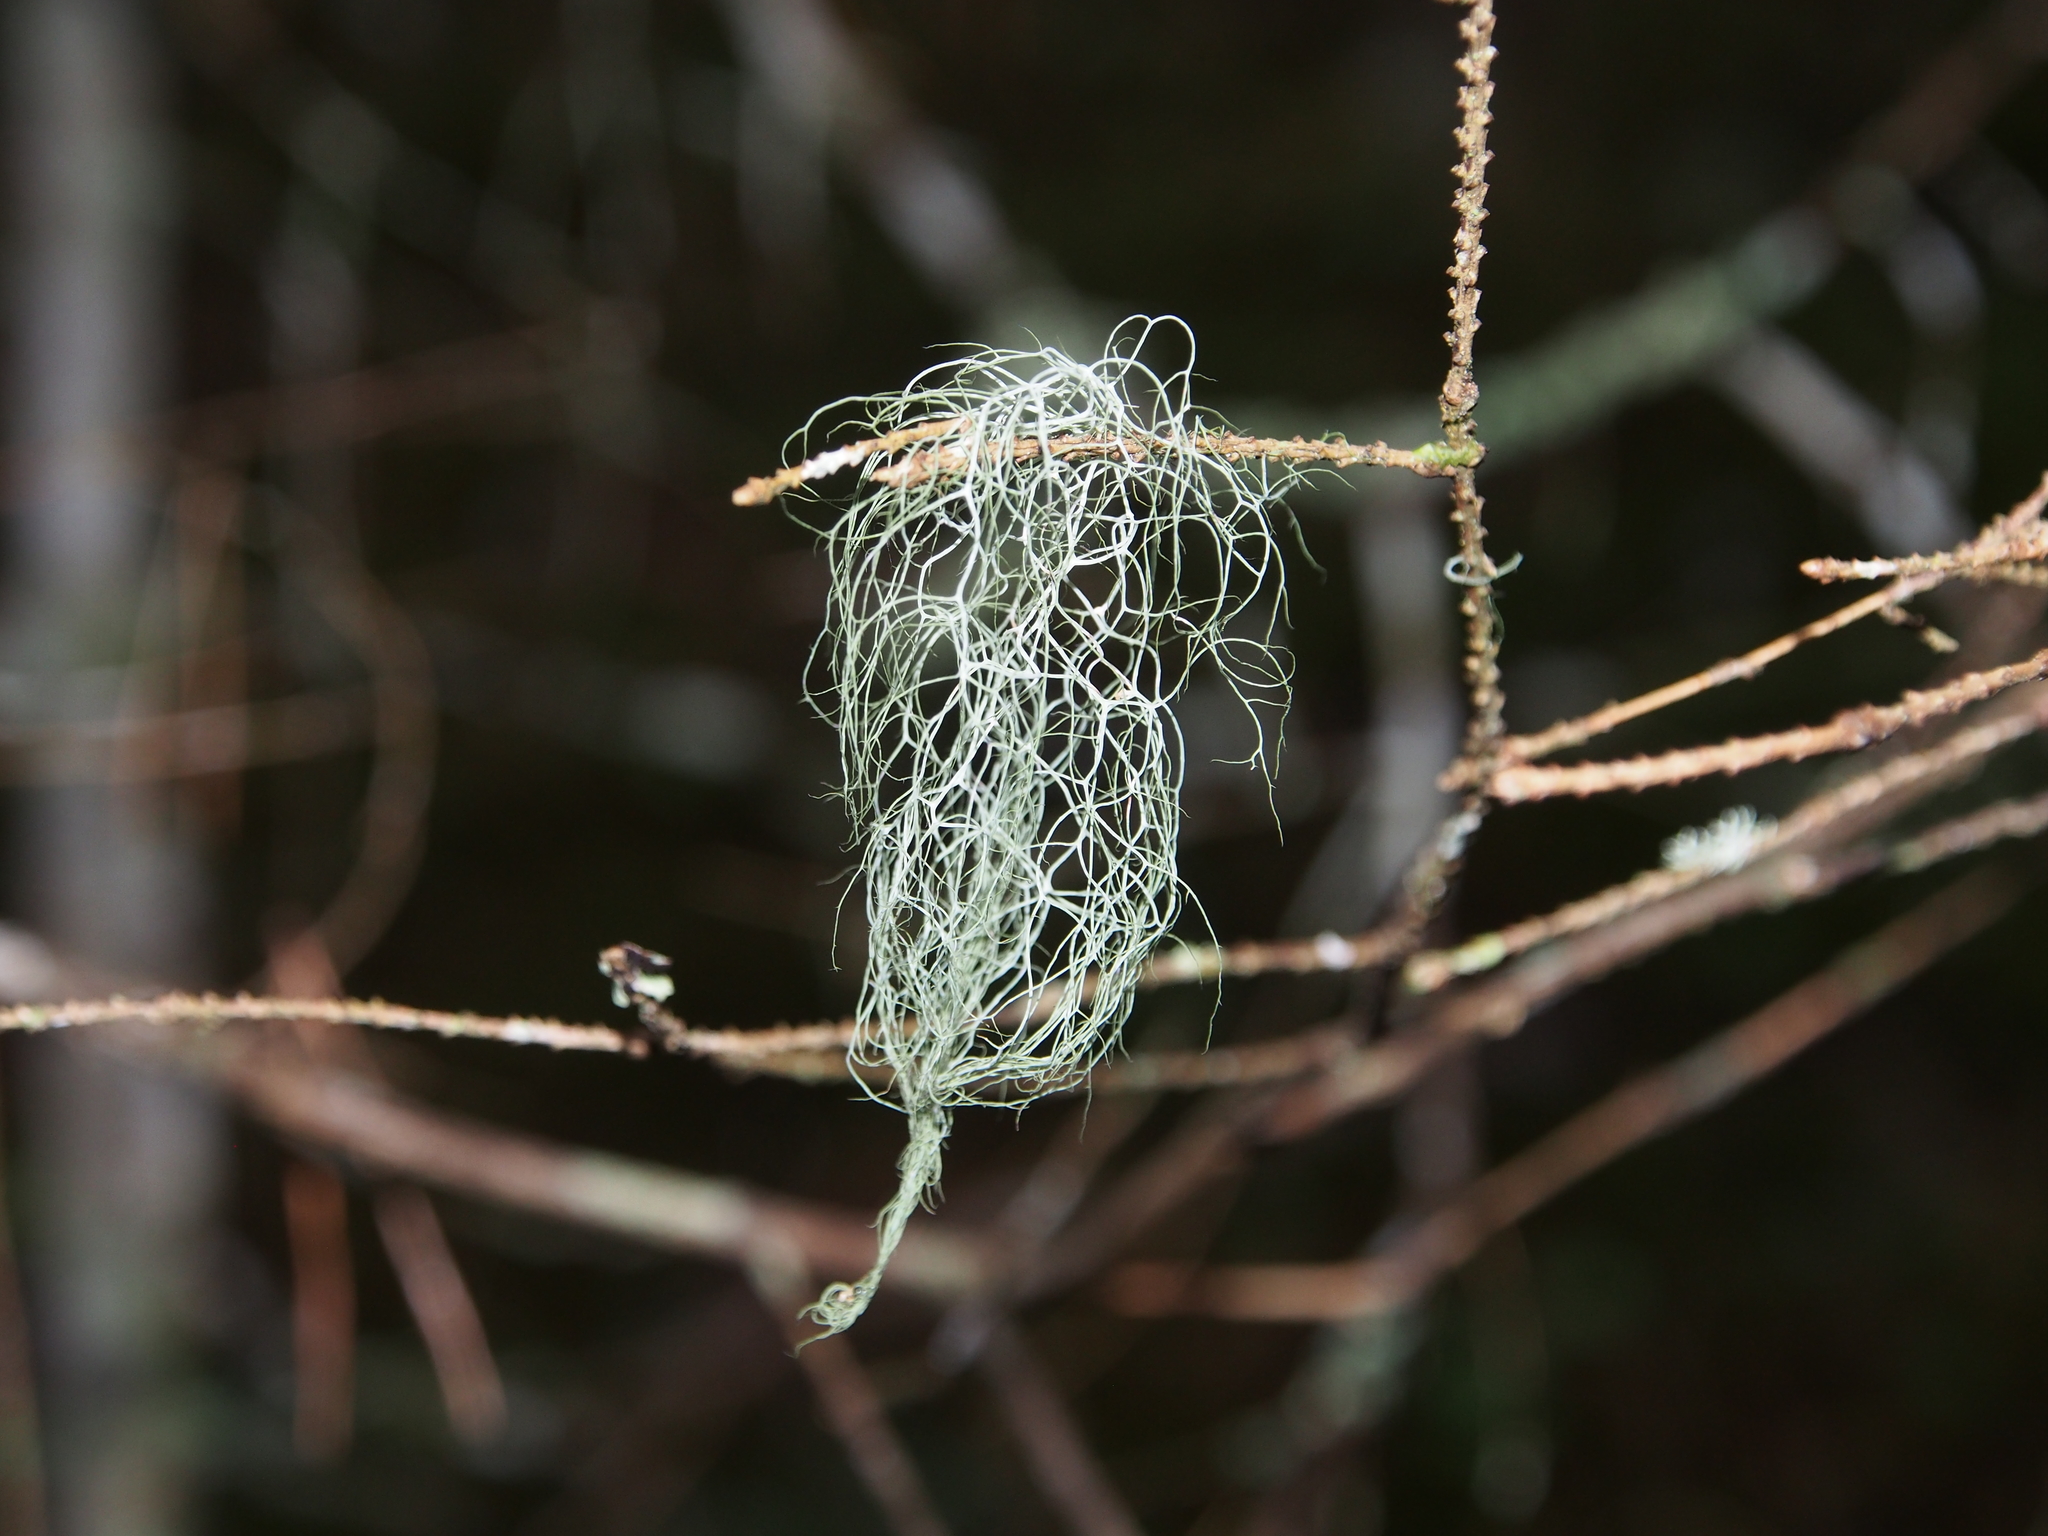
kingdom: Fungi
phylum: Ascomycota
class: Lecanoromycetes
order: Lecanorales
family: Parmeliaceae
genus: Bryoria
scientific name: Bryoria fuscescens
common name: Pale-footed horsehair lichen
